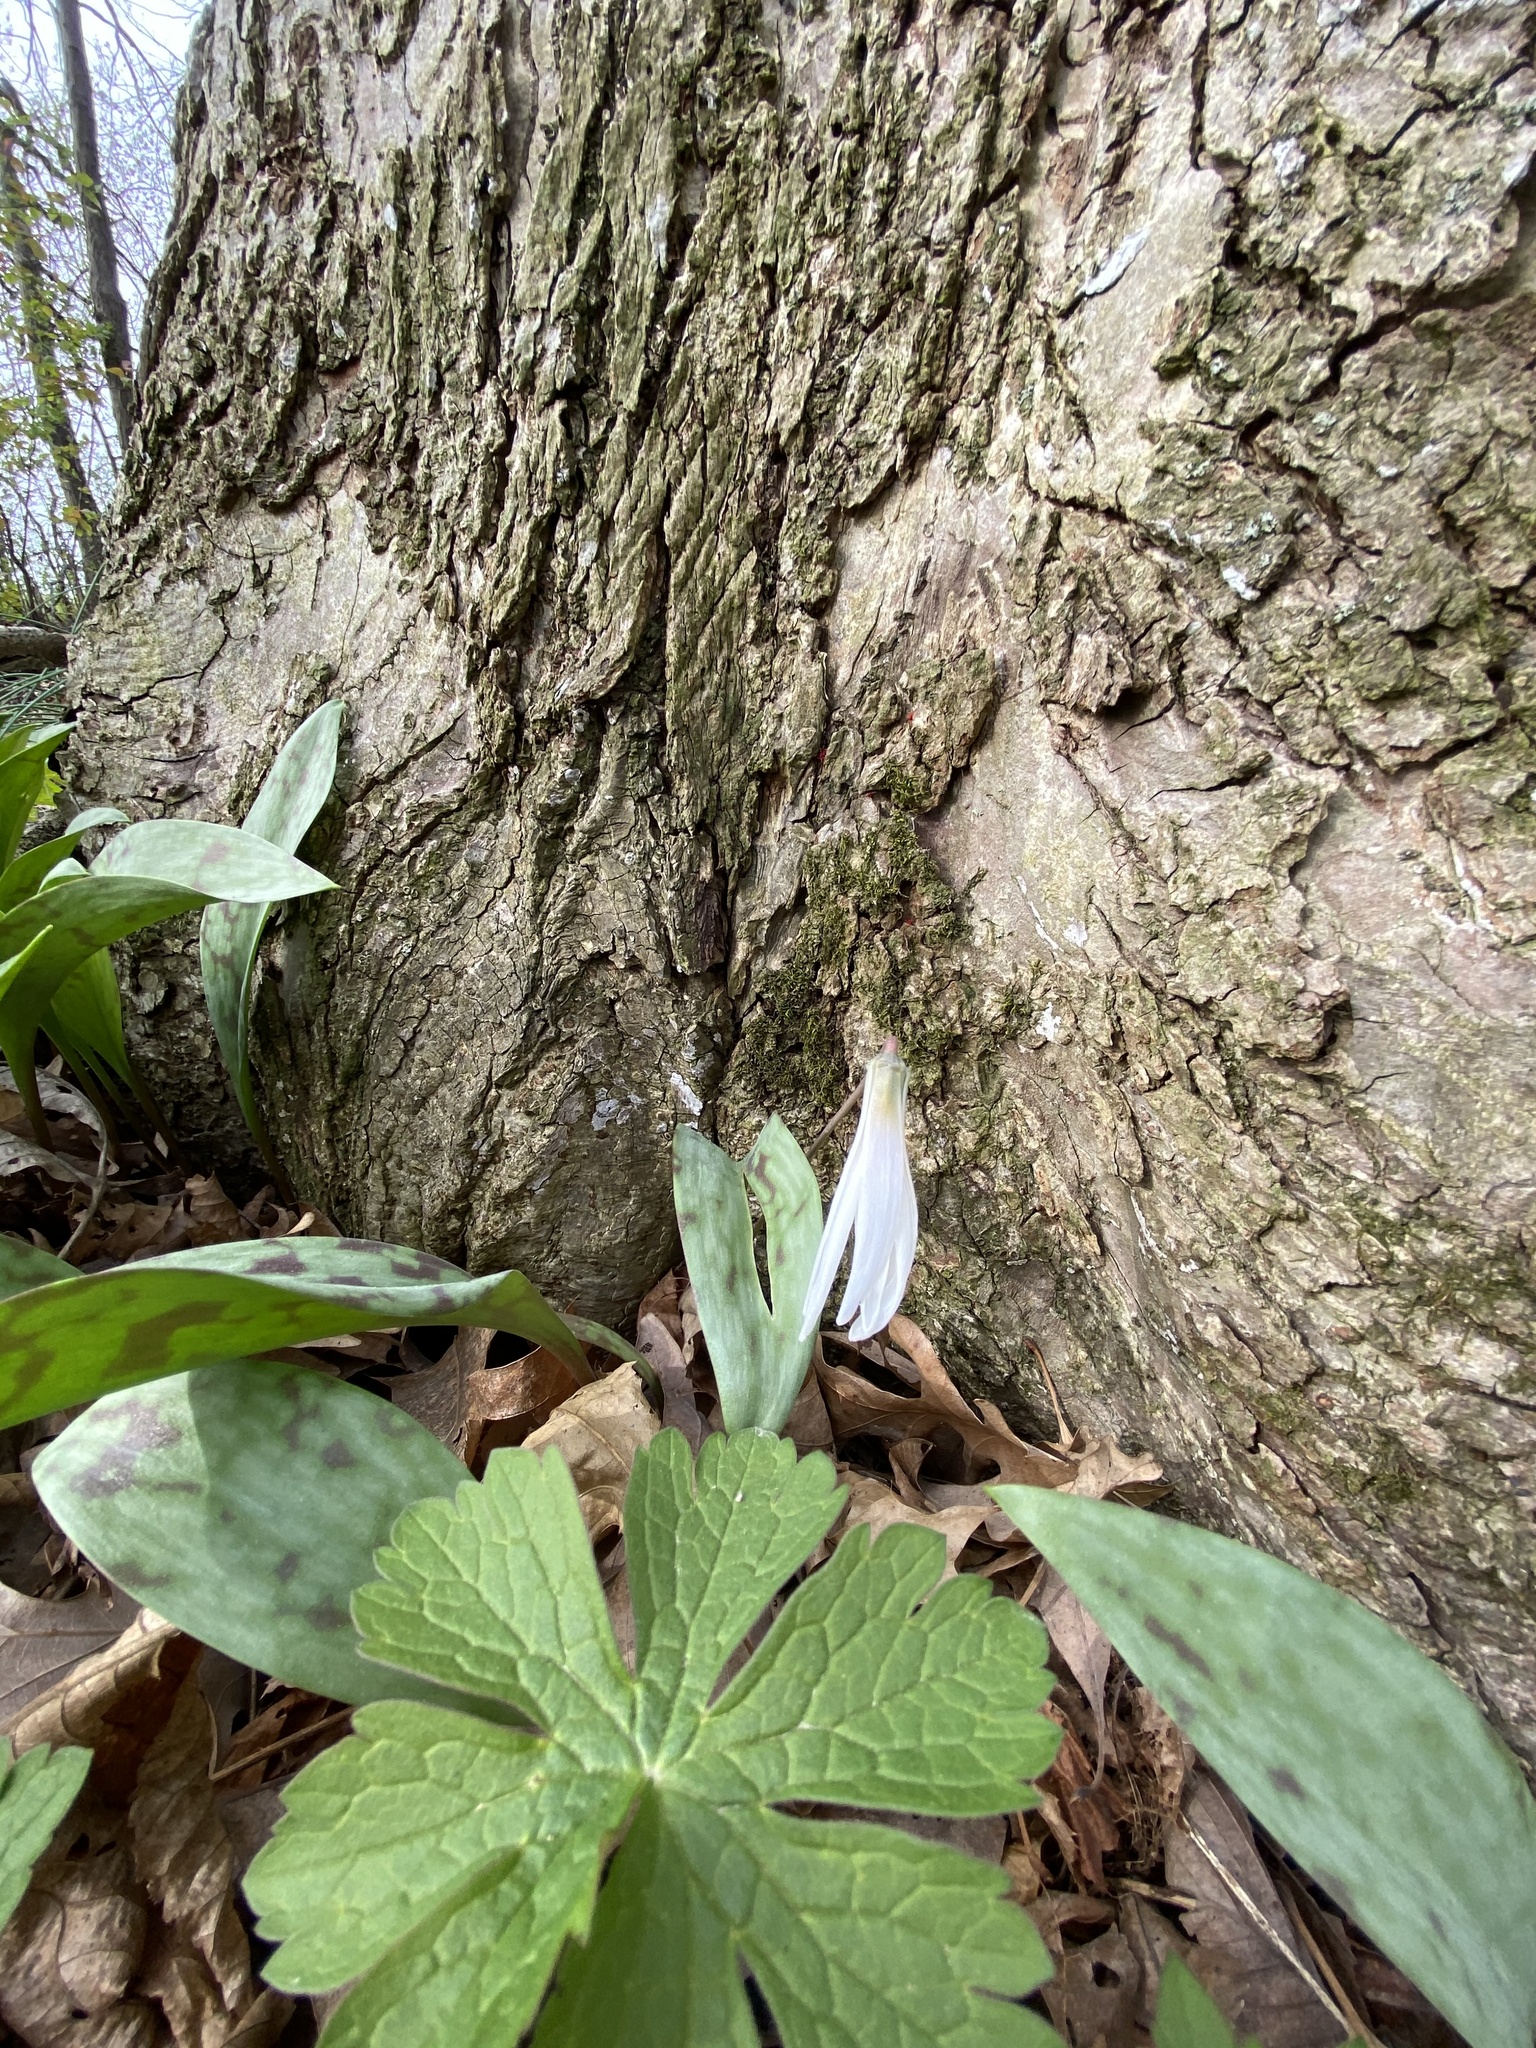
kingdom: Plantae
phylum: Tracheophyta
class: Liliopsida
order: Liliales
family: Liliaceae
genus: Erythronium
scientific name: Erythronium albidum
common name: White trout-lily
